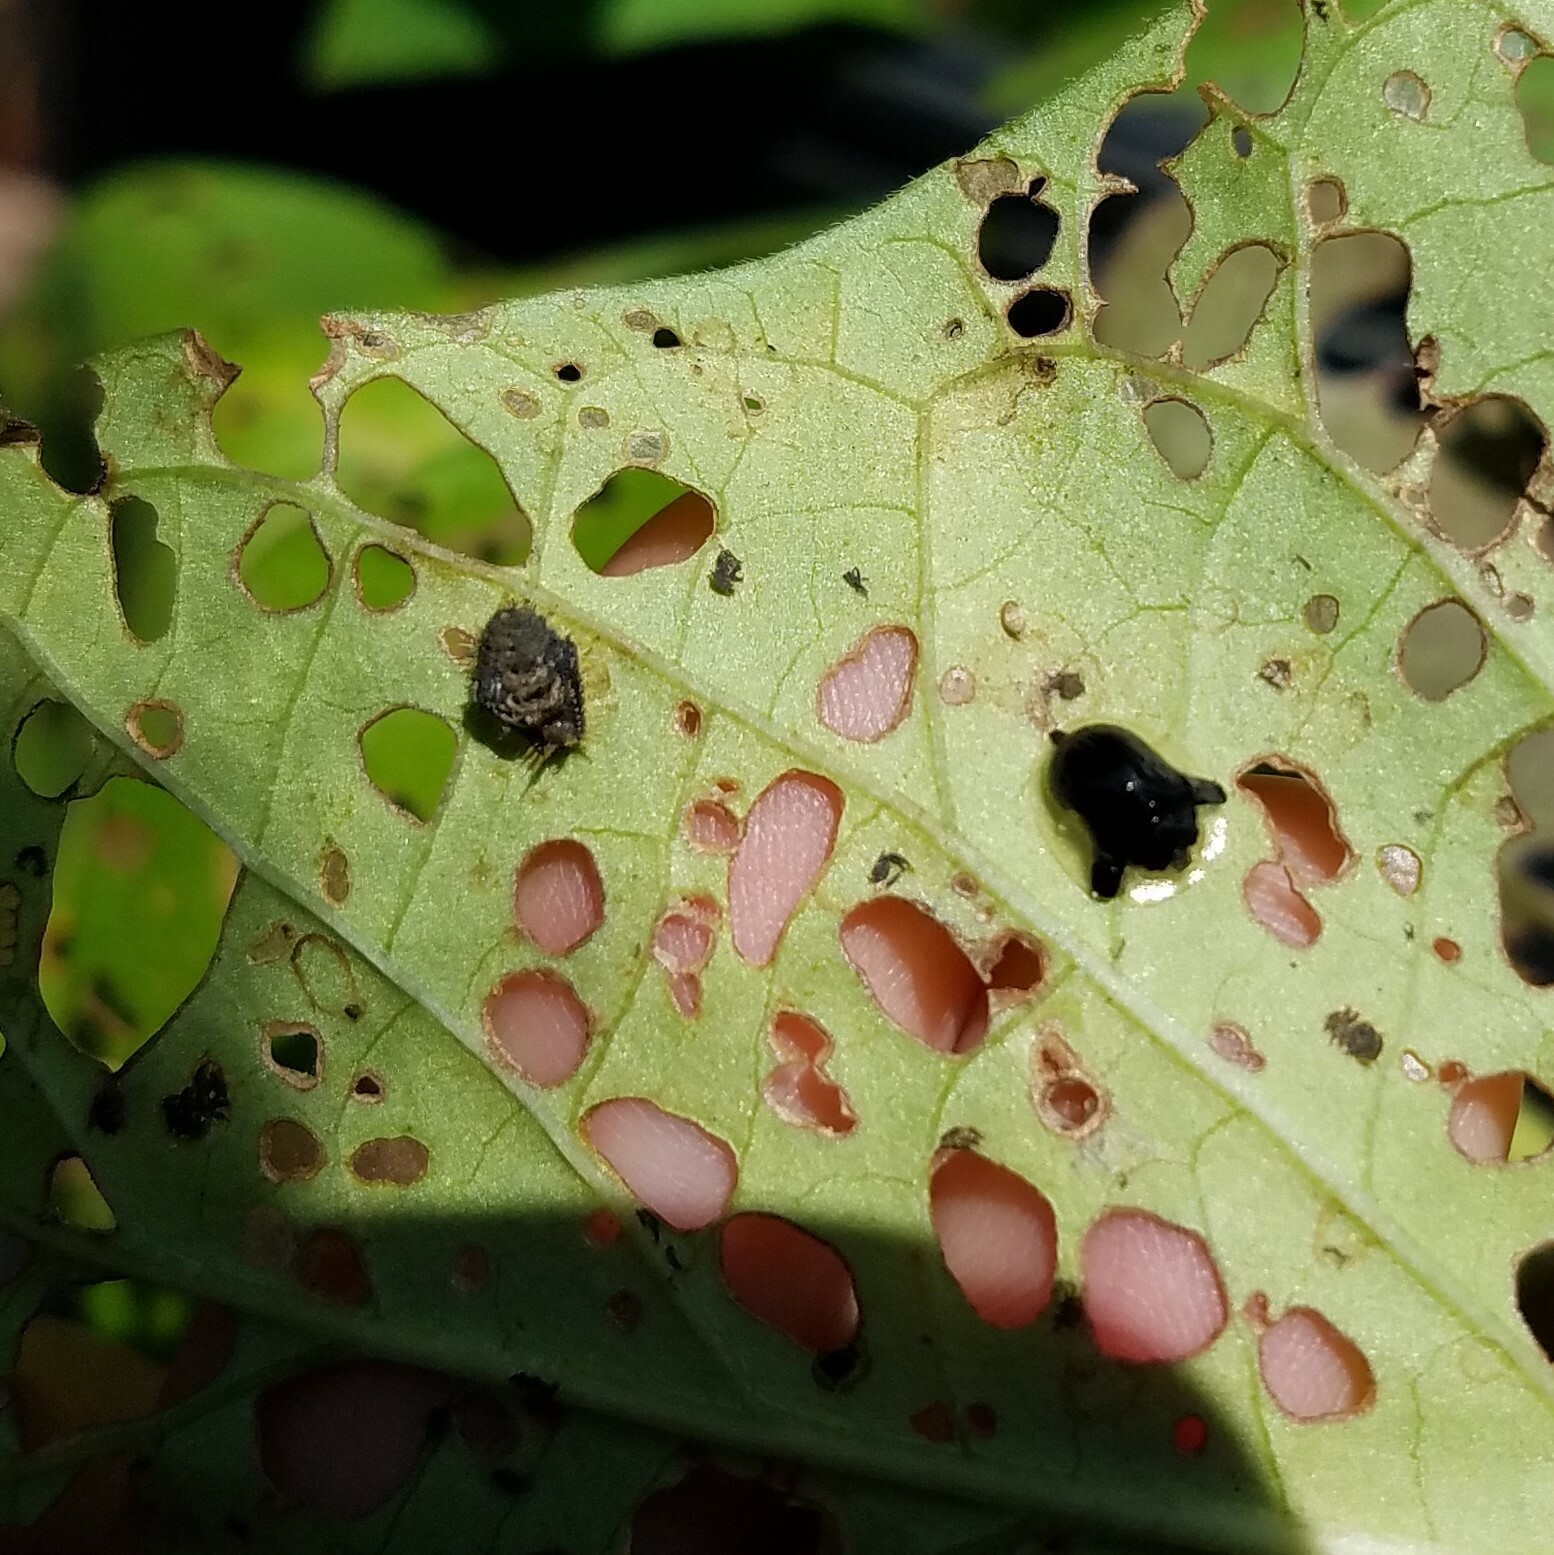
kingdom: Animalia
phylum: Arthropoda
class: Insecta
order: Coleoptera
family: Chrysomelidae
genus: Deloyala
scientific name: Deloyala guttata
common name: Mottled tortoise beetle
